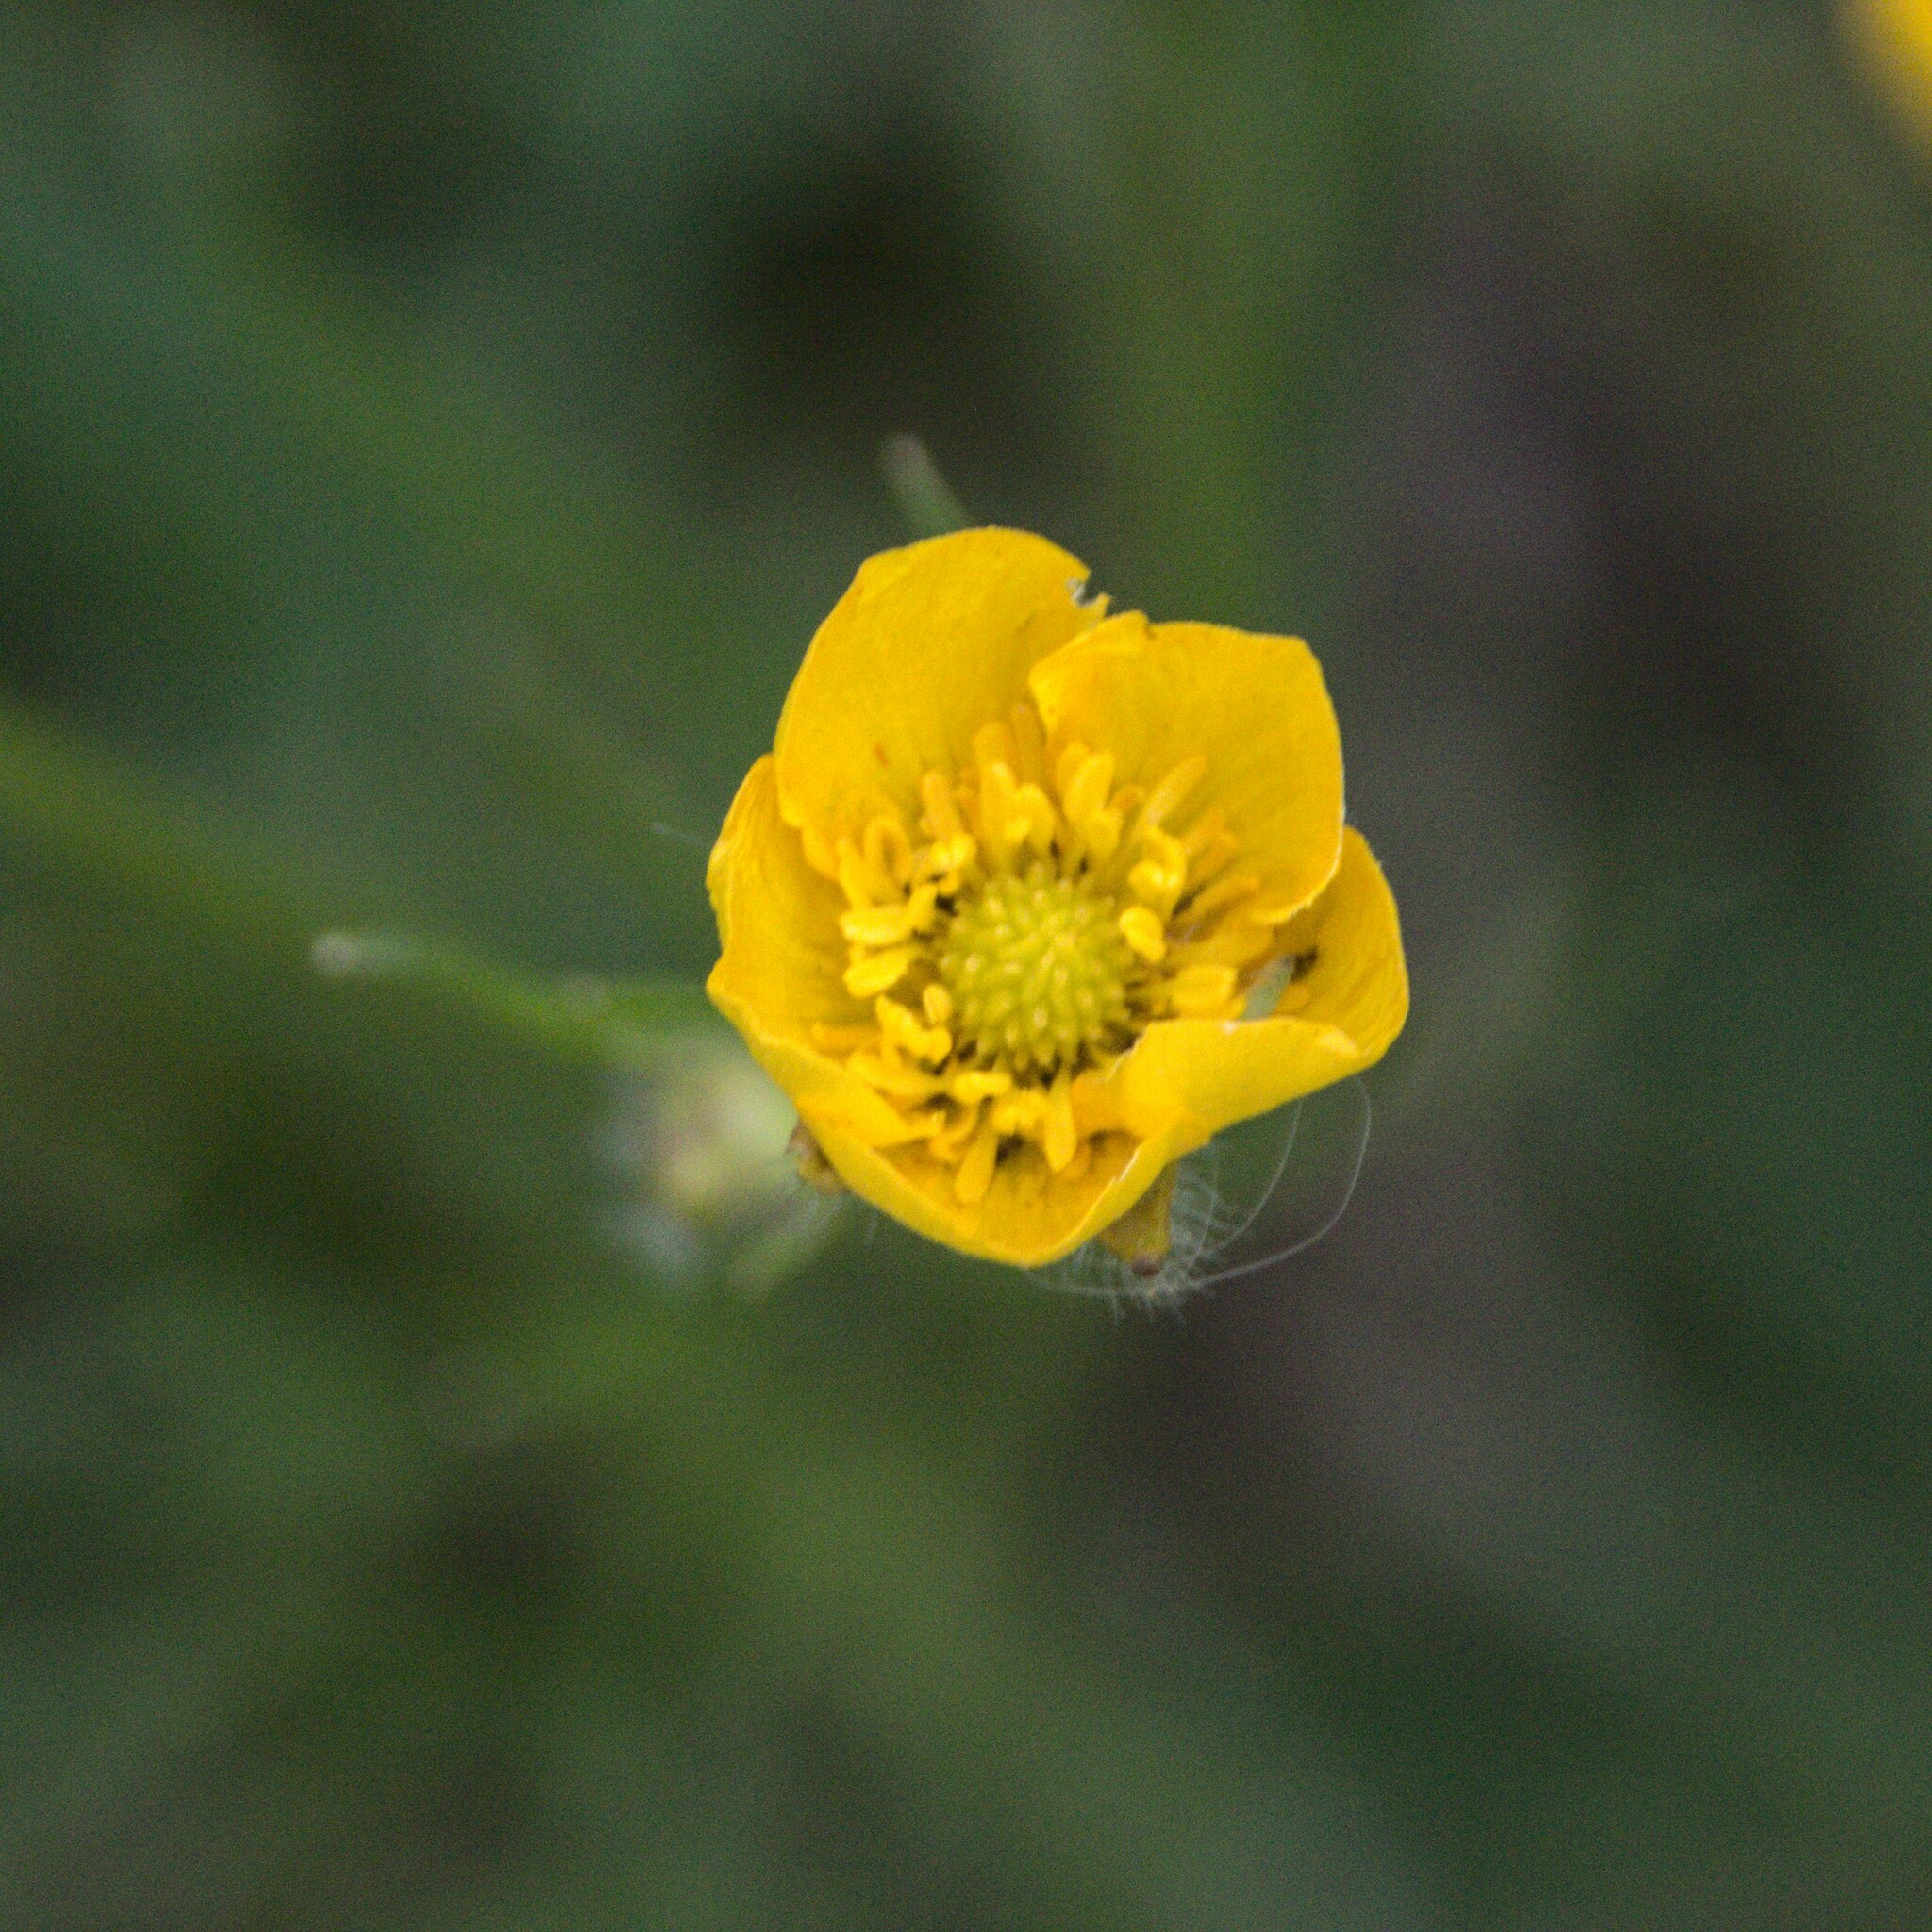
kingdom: Plantae
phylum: Tracheophyta
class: Magnoliopsida
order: Ranunculales
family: Ranunculaceae
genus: Ranunculus
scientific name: Ranunculus polyanthemos
